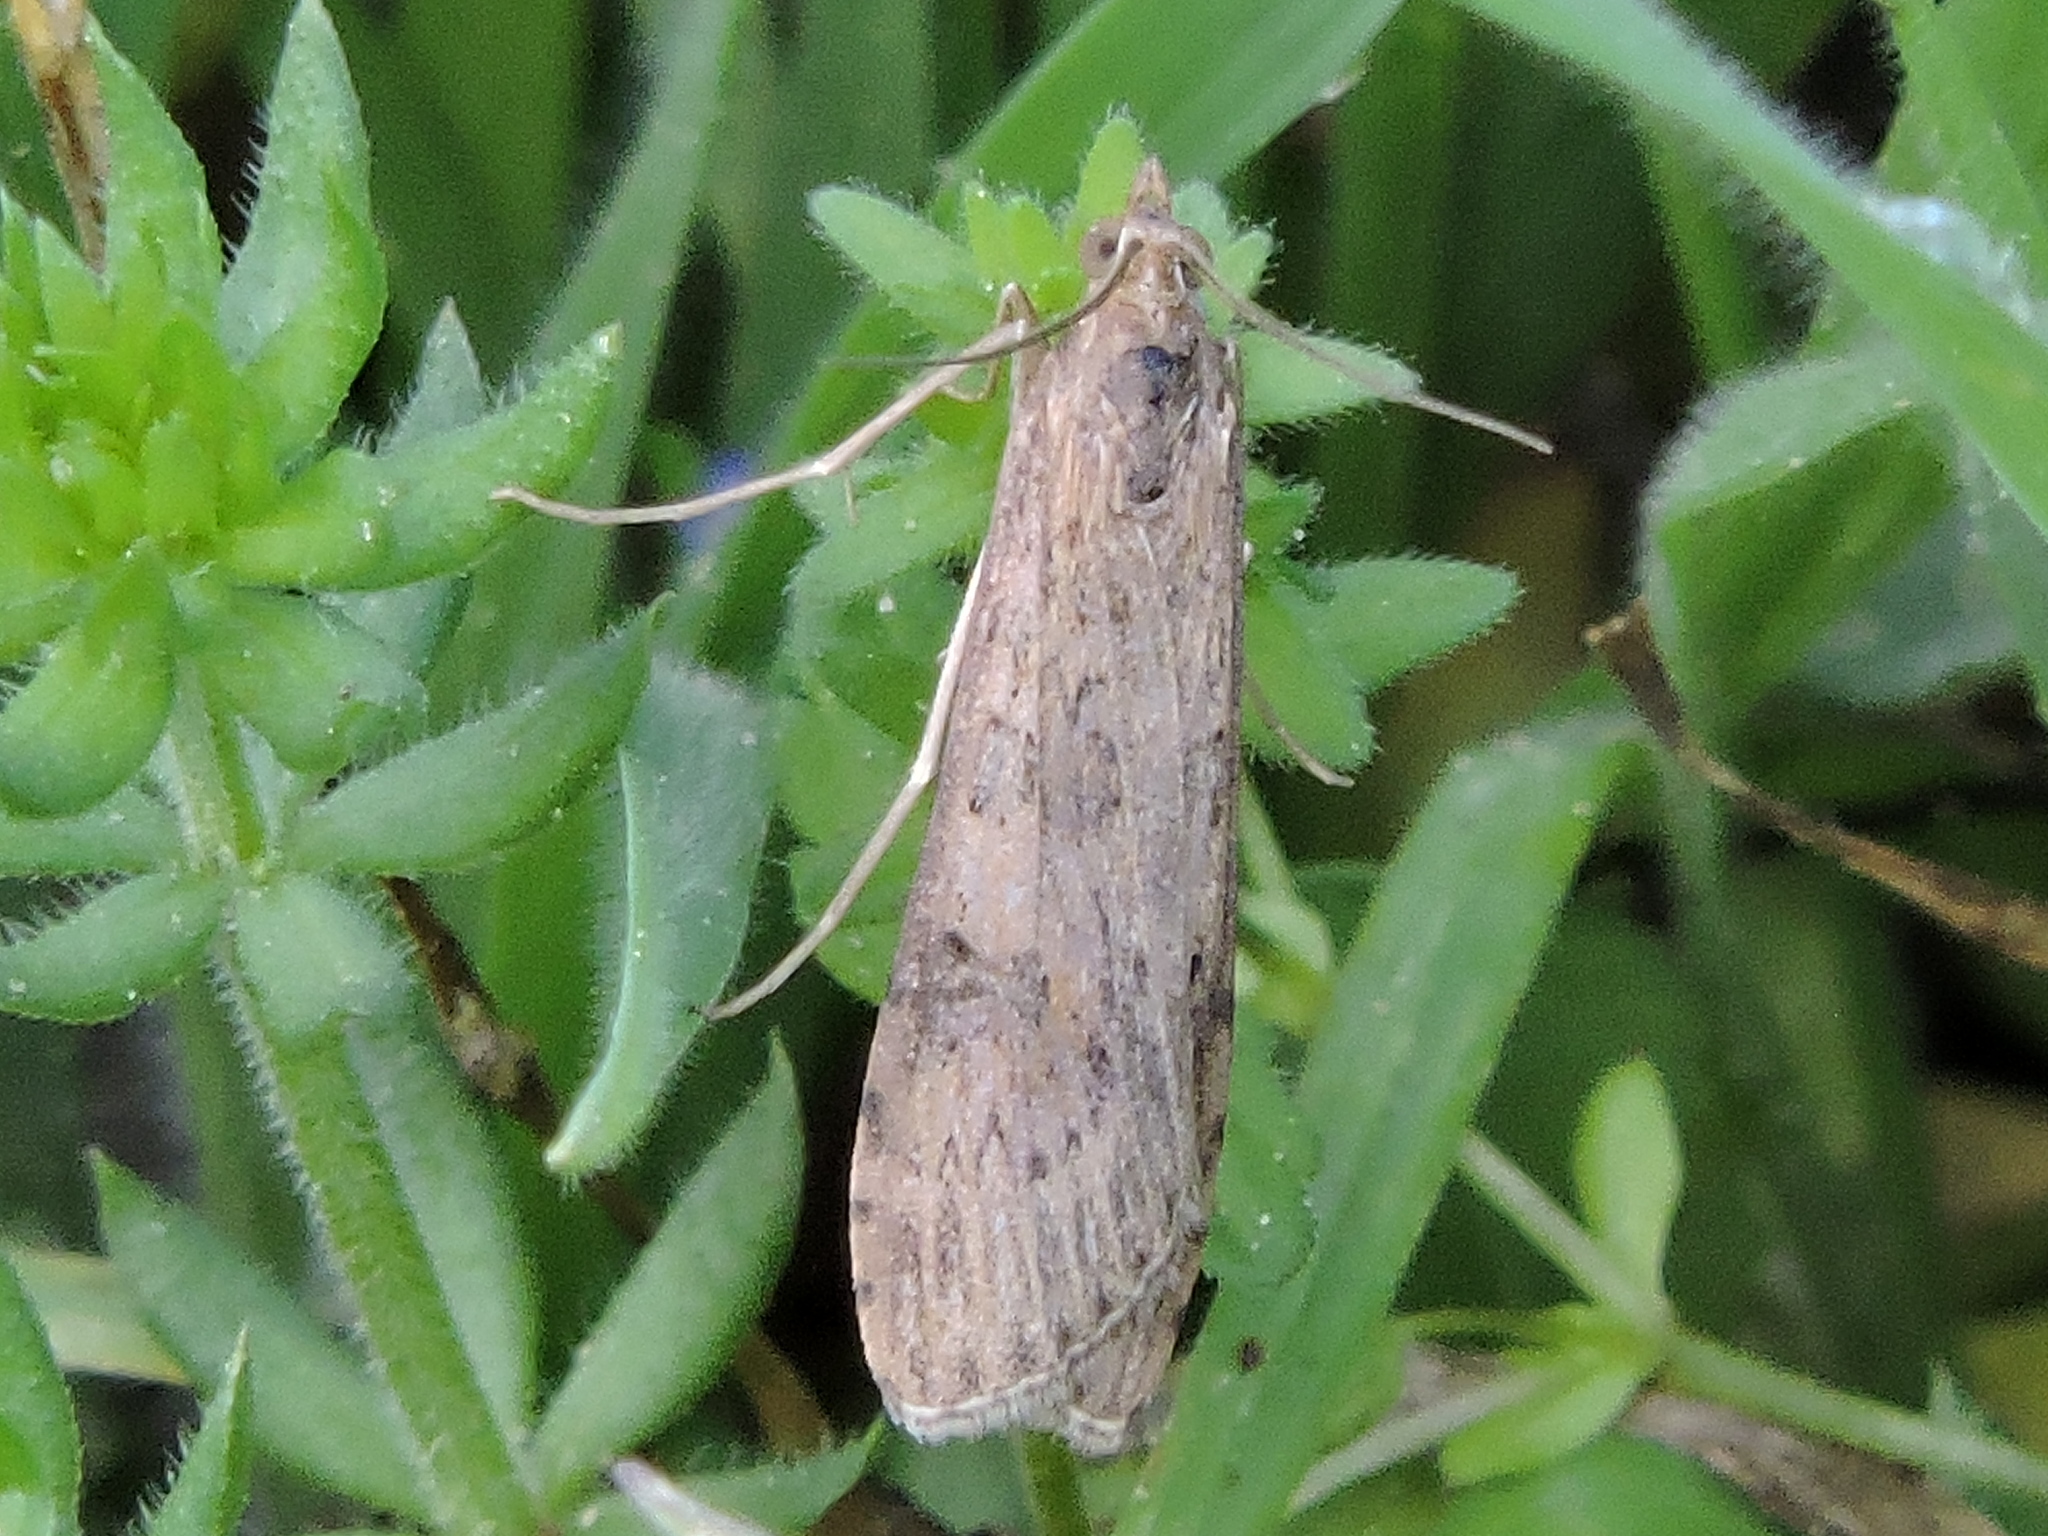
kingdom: Animalia
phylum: Arthropoda
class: Insecta
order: Lepidoptera
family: Crambidae
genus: Nomophila
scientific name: Nomophila nearctica
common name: American rush veneer
